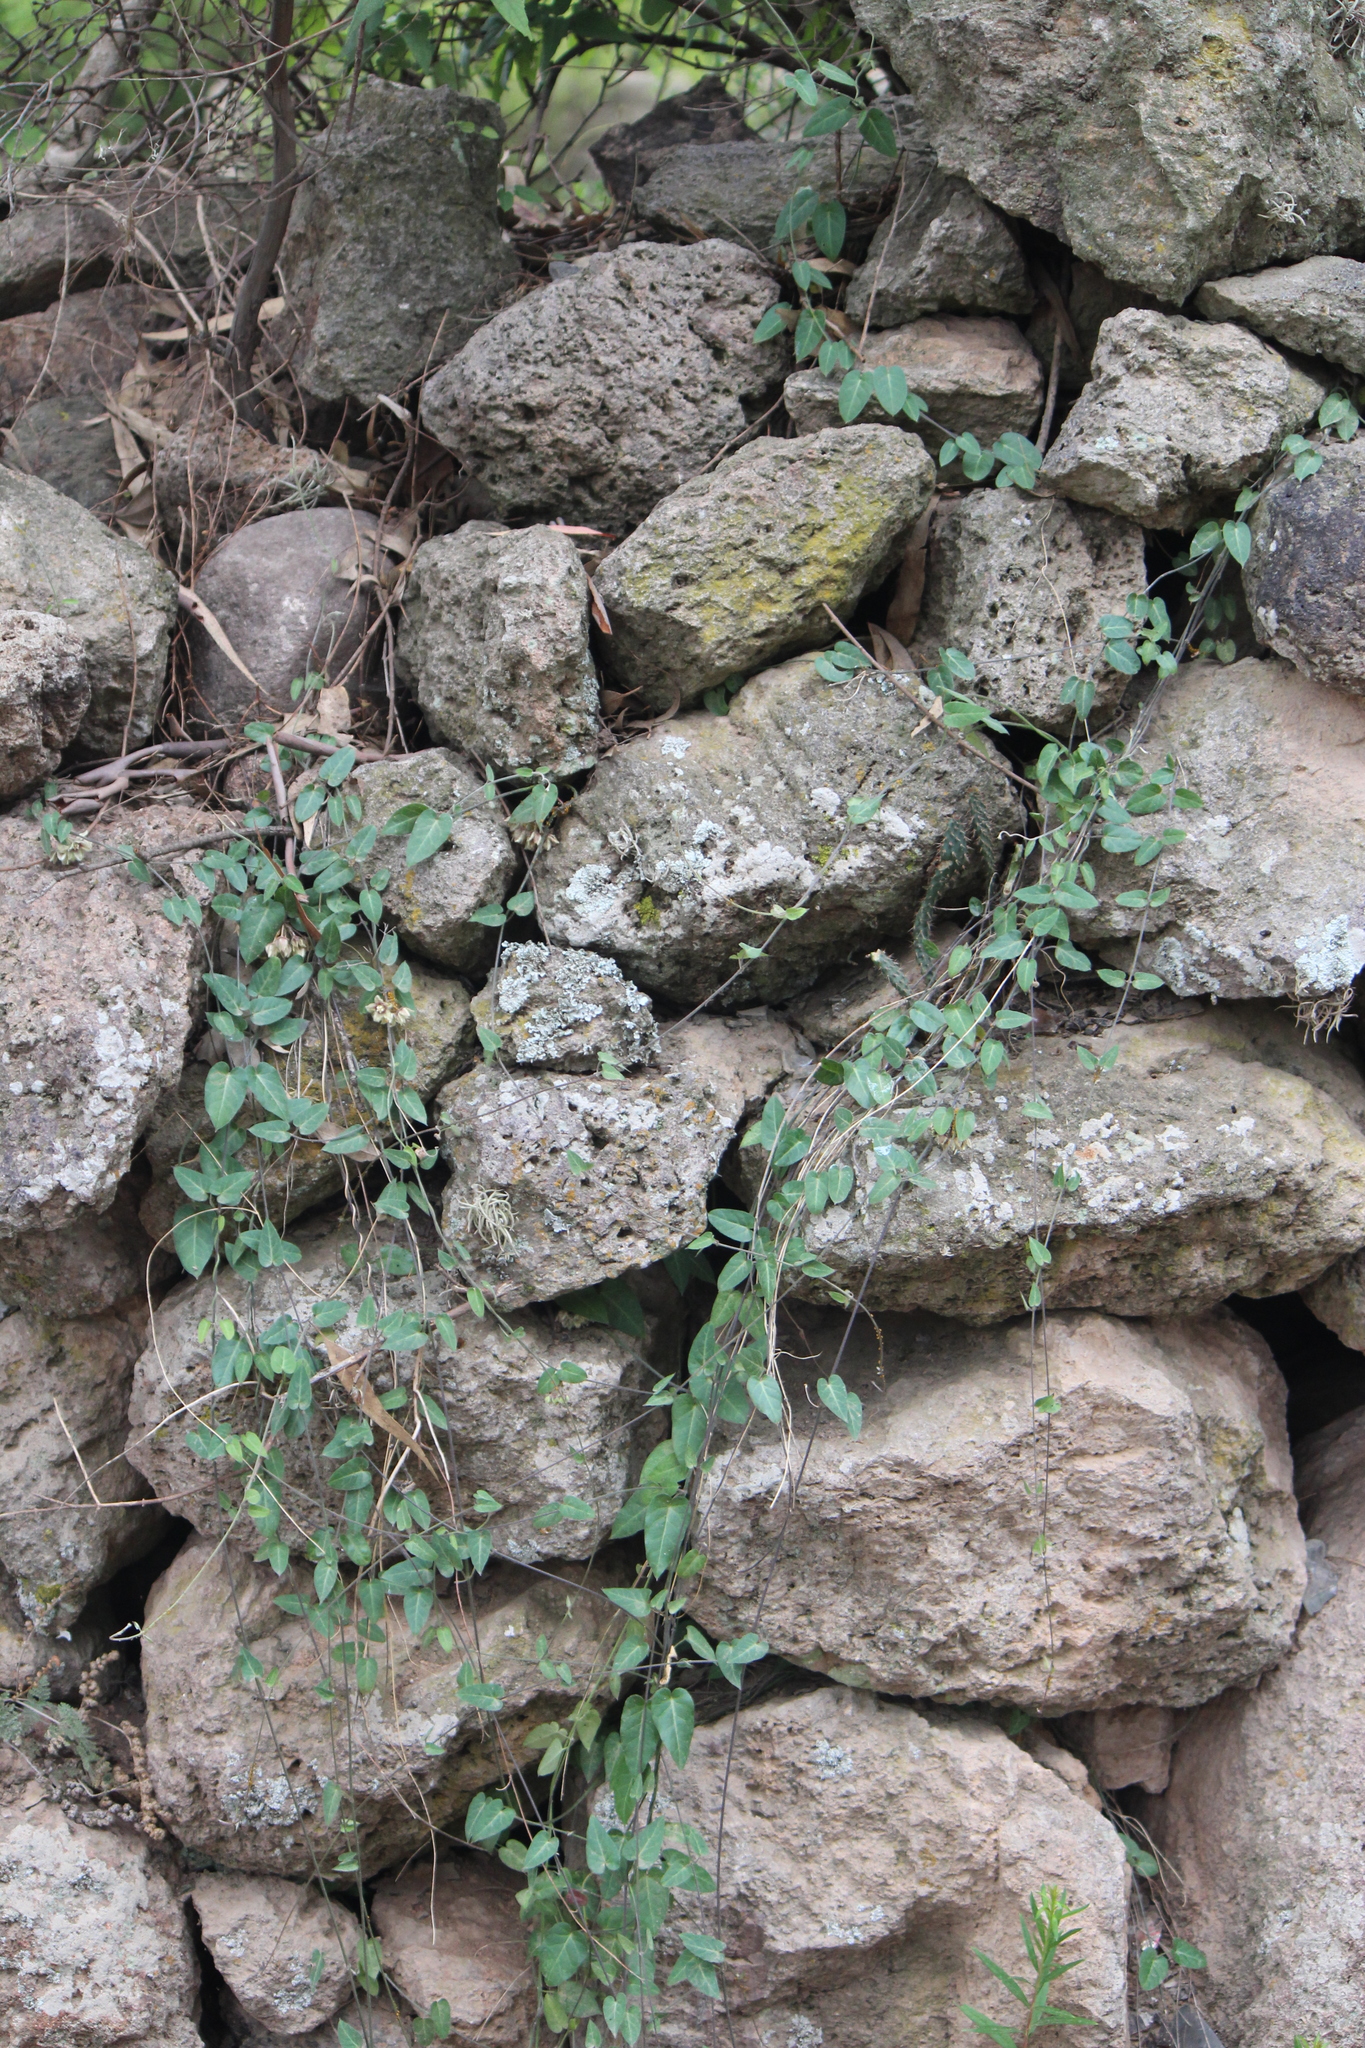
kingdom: Plantae
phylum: Tracheophyta
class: Magnoliopsida
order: Gentianales
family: Apocynaceae
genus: Funastrum
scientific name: Funastrum elegans
